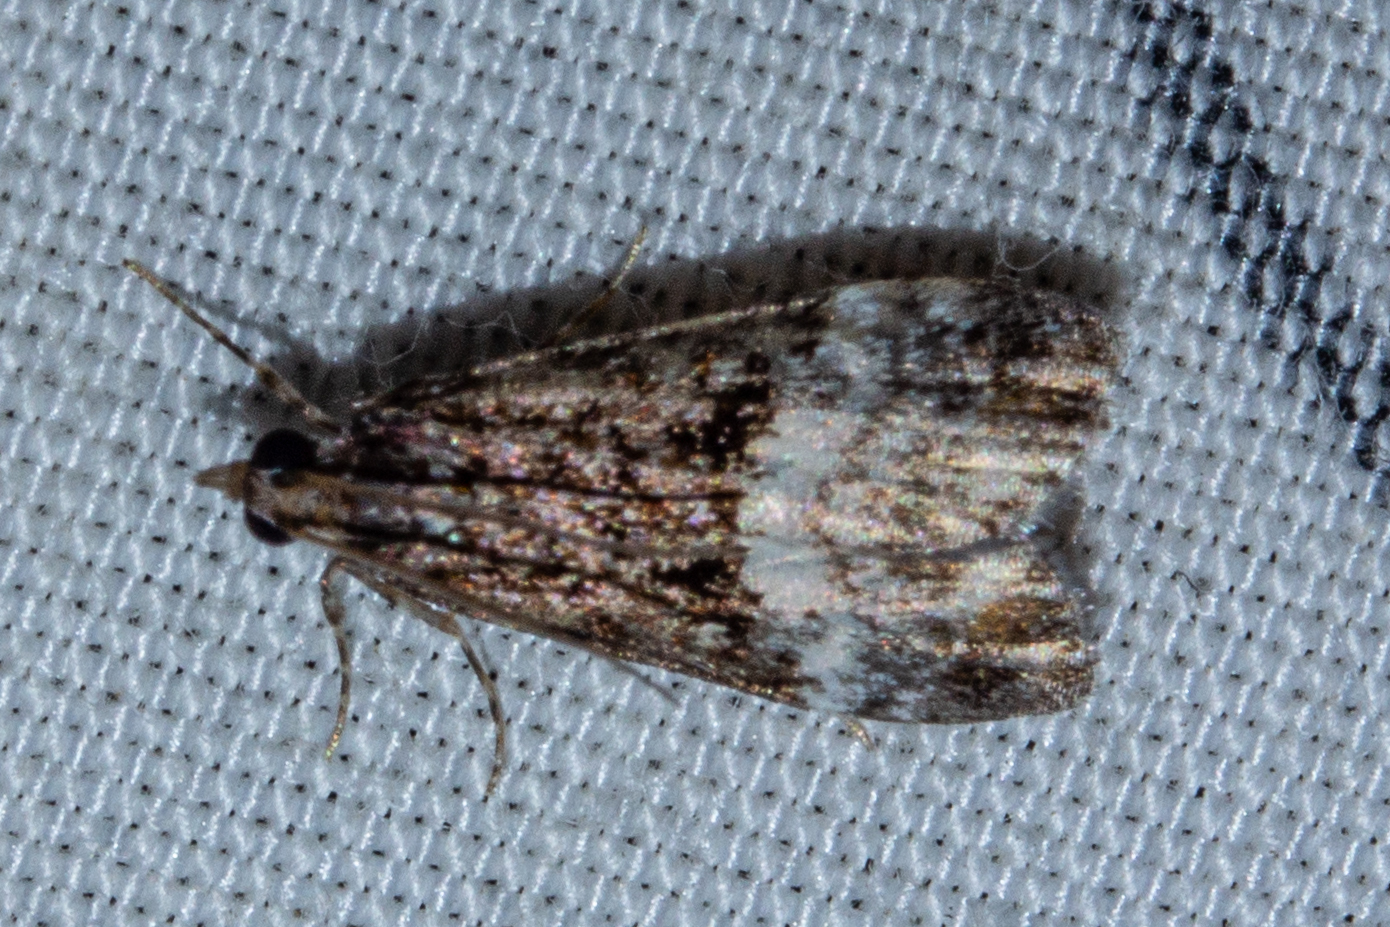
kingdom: Animalia
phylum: Arthropoda
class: Insecta
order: Lepidoptera
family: Crambidae
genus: Eudonia
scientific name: Eudonia dinodes
